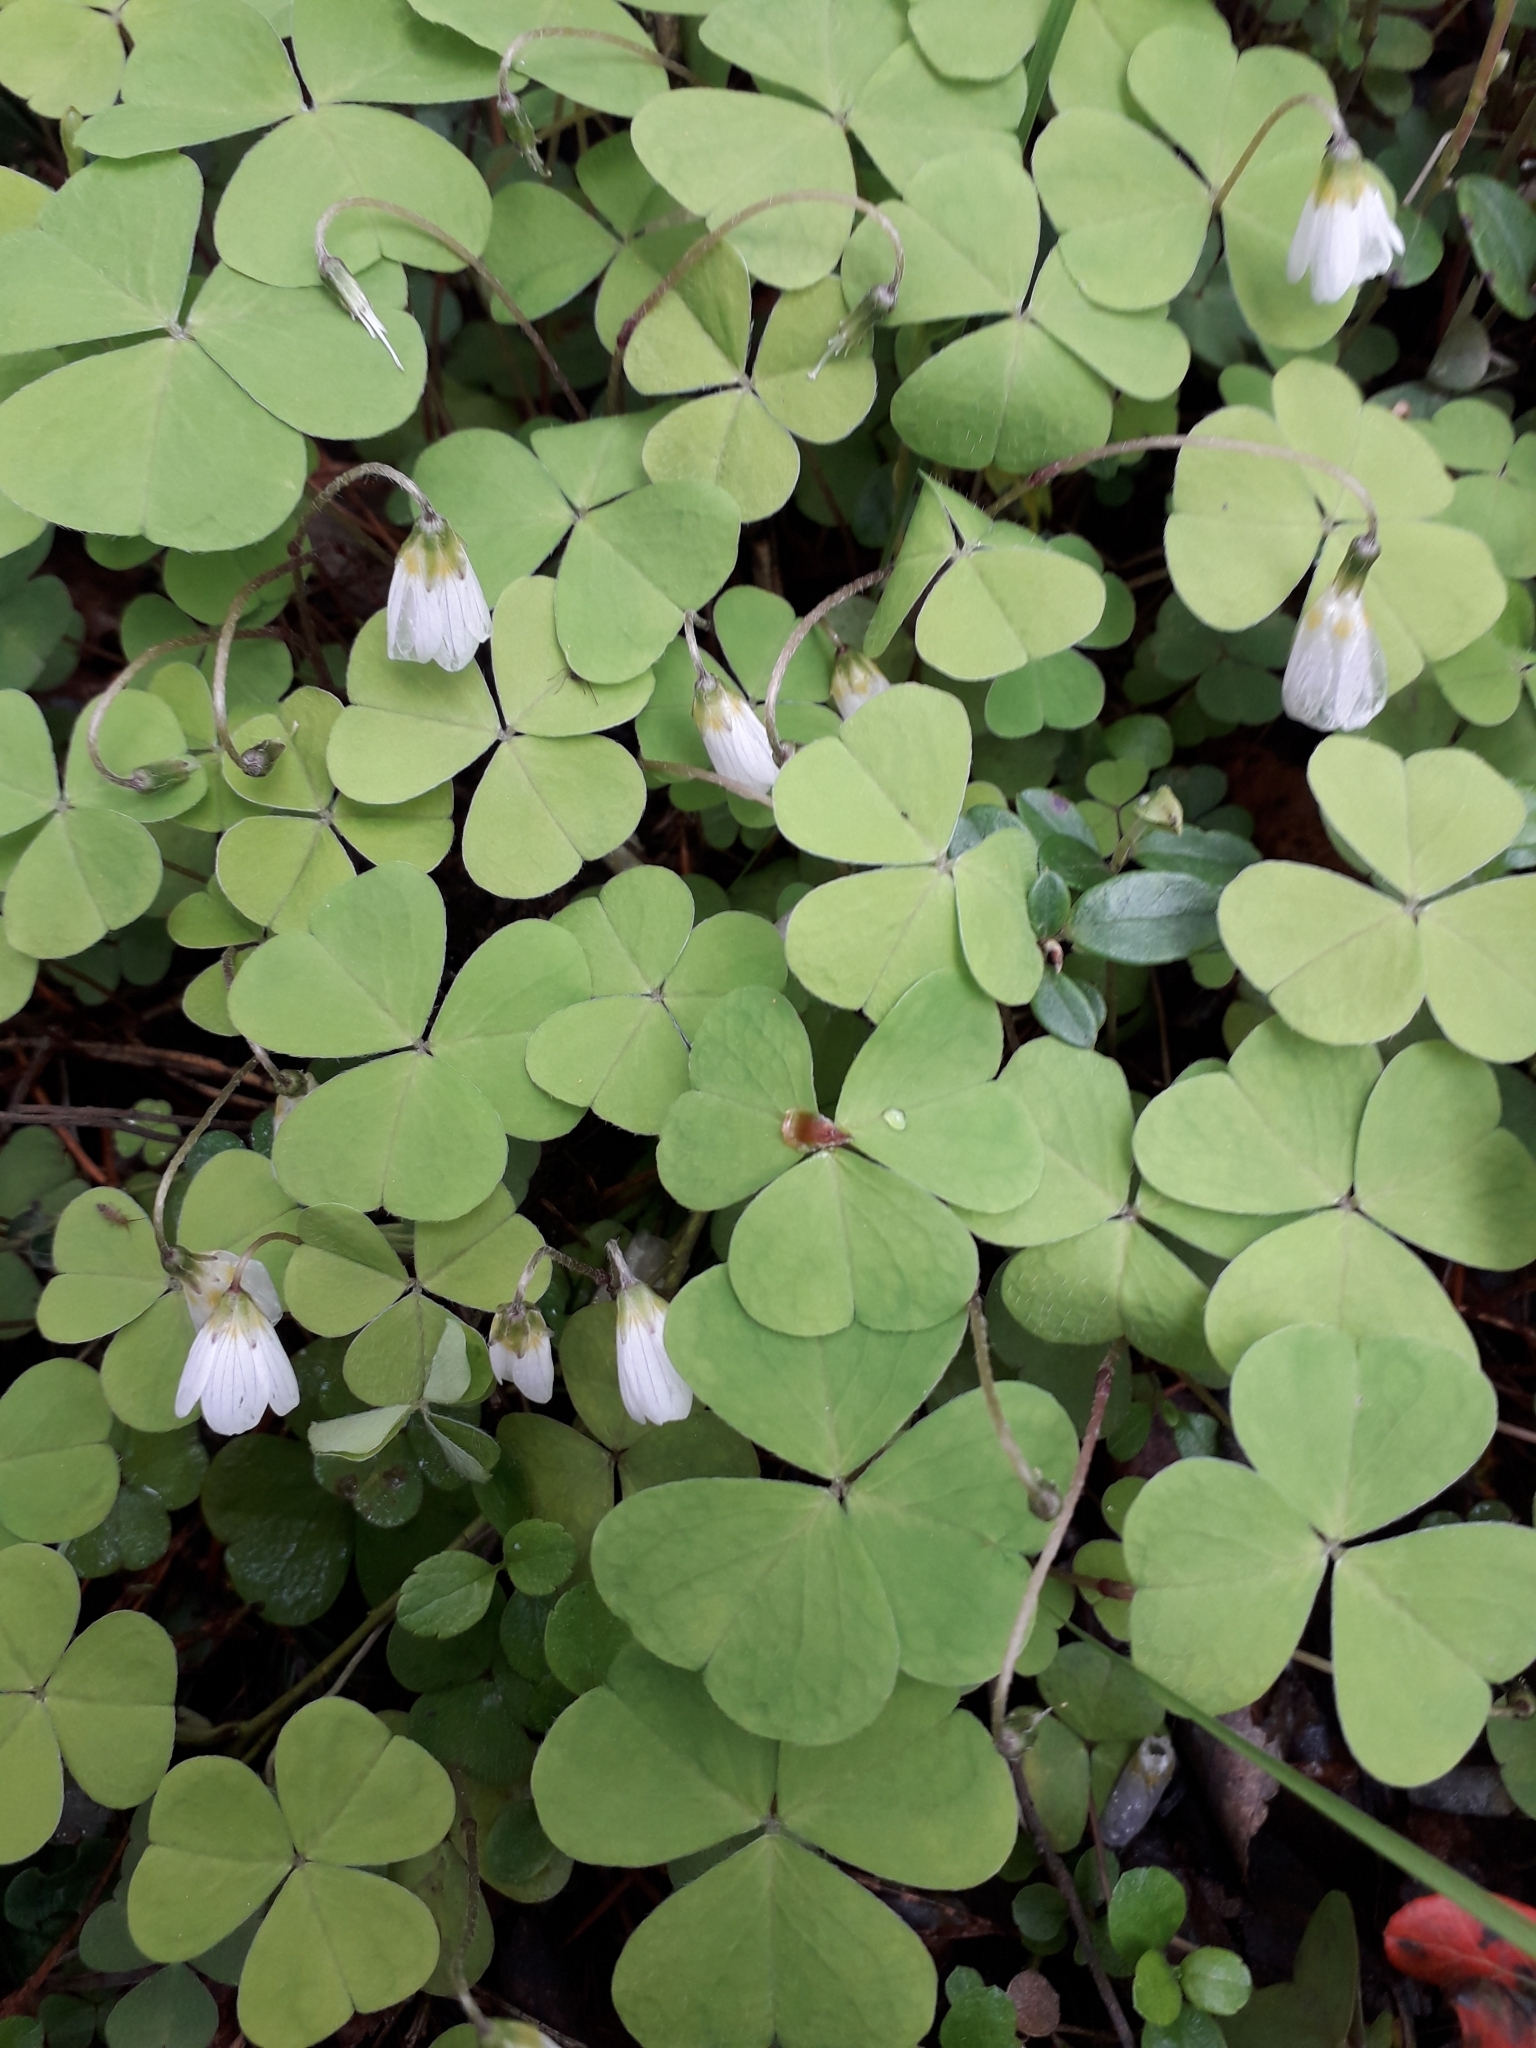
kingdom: Plantae
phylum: Tracheophyta
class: Magnoliopsida
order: Oxalidales
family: Oxalidaceae
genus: Oxalis
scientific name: Oxalis acetosella
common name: Wood-sorrel
